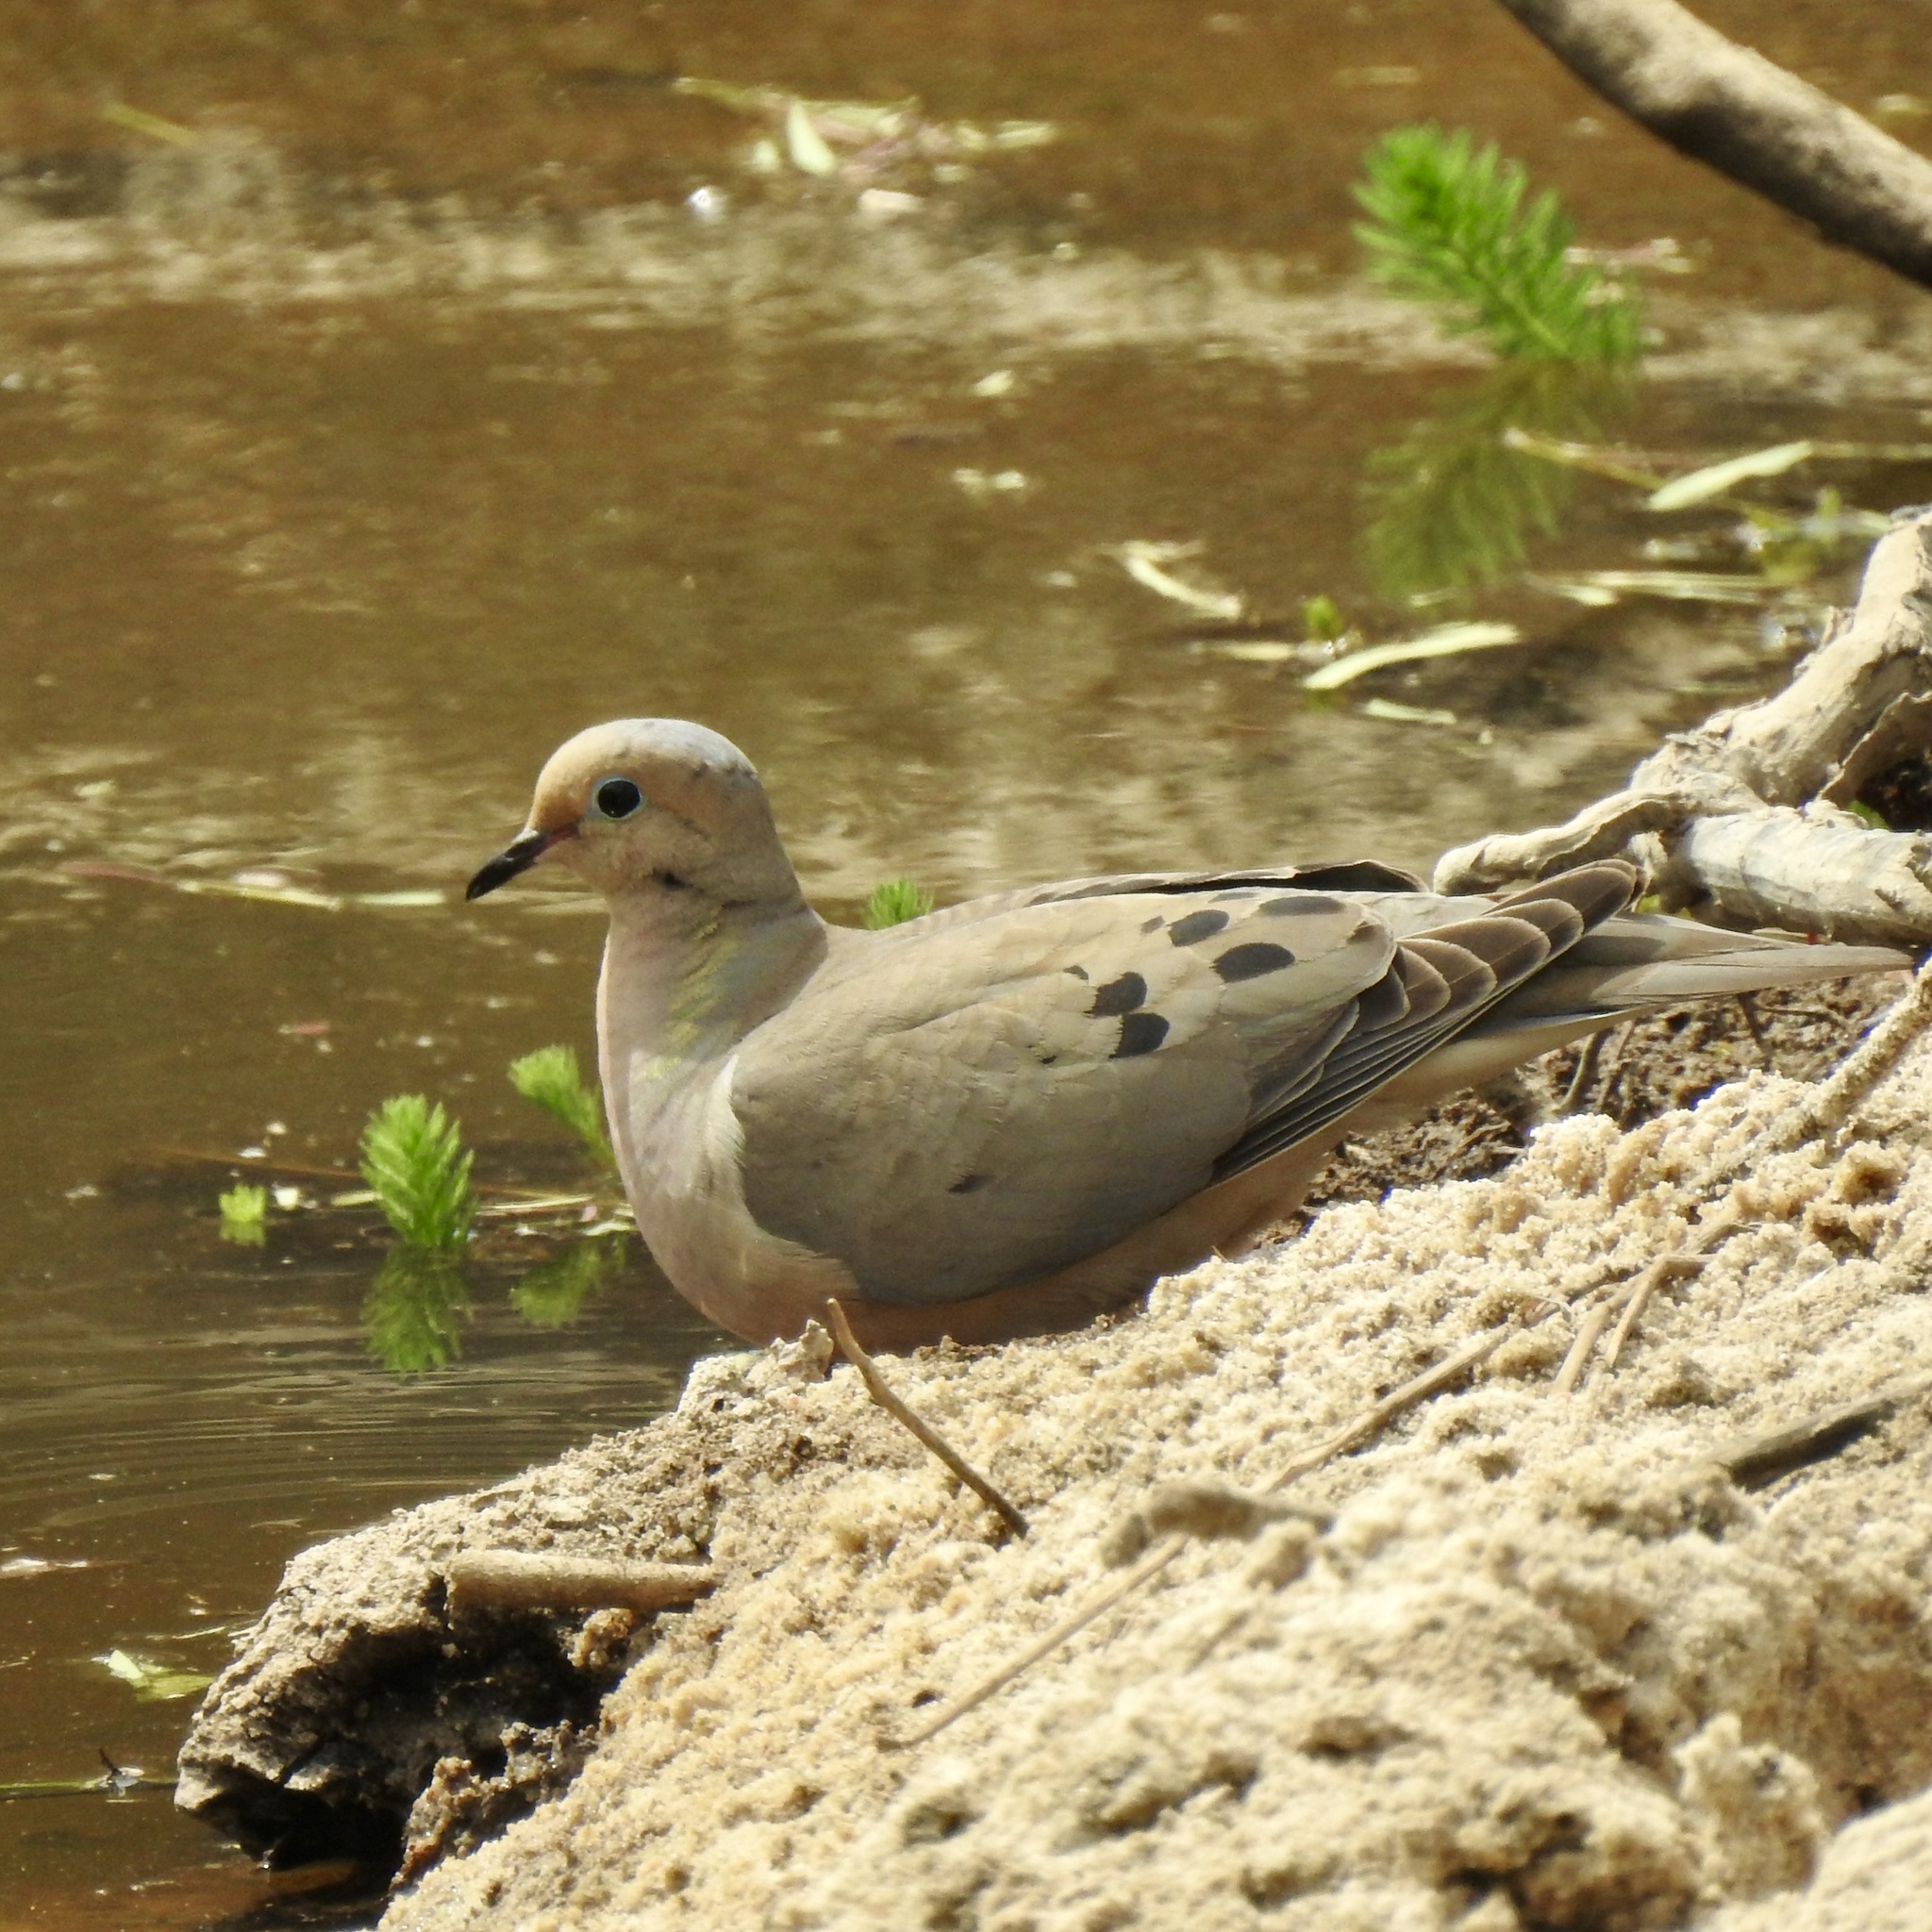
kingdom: Animalia
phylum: Chordata
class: Aves
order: Columbiformes
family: Columbidae
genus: Zenaida
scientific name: Zenaida macroura
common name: Mourning dove
